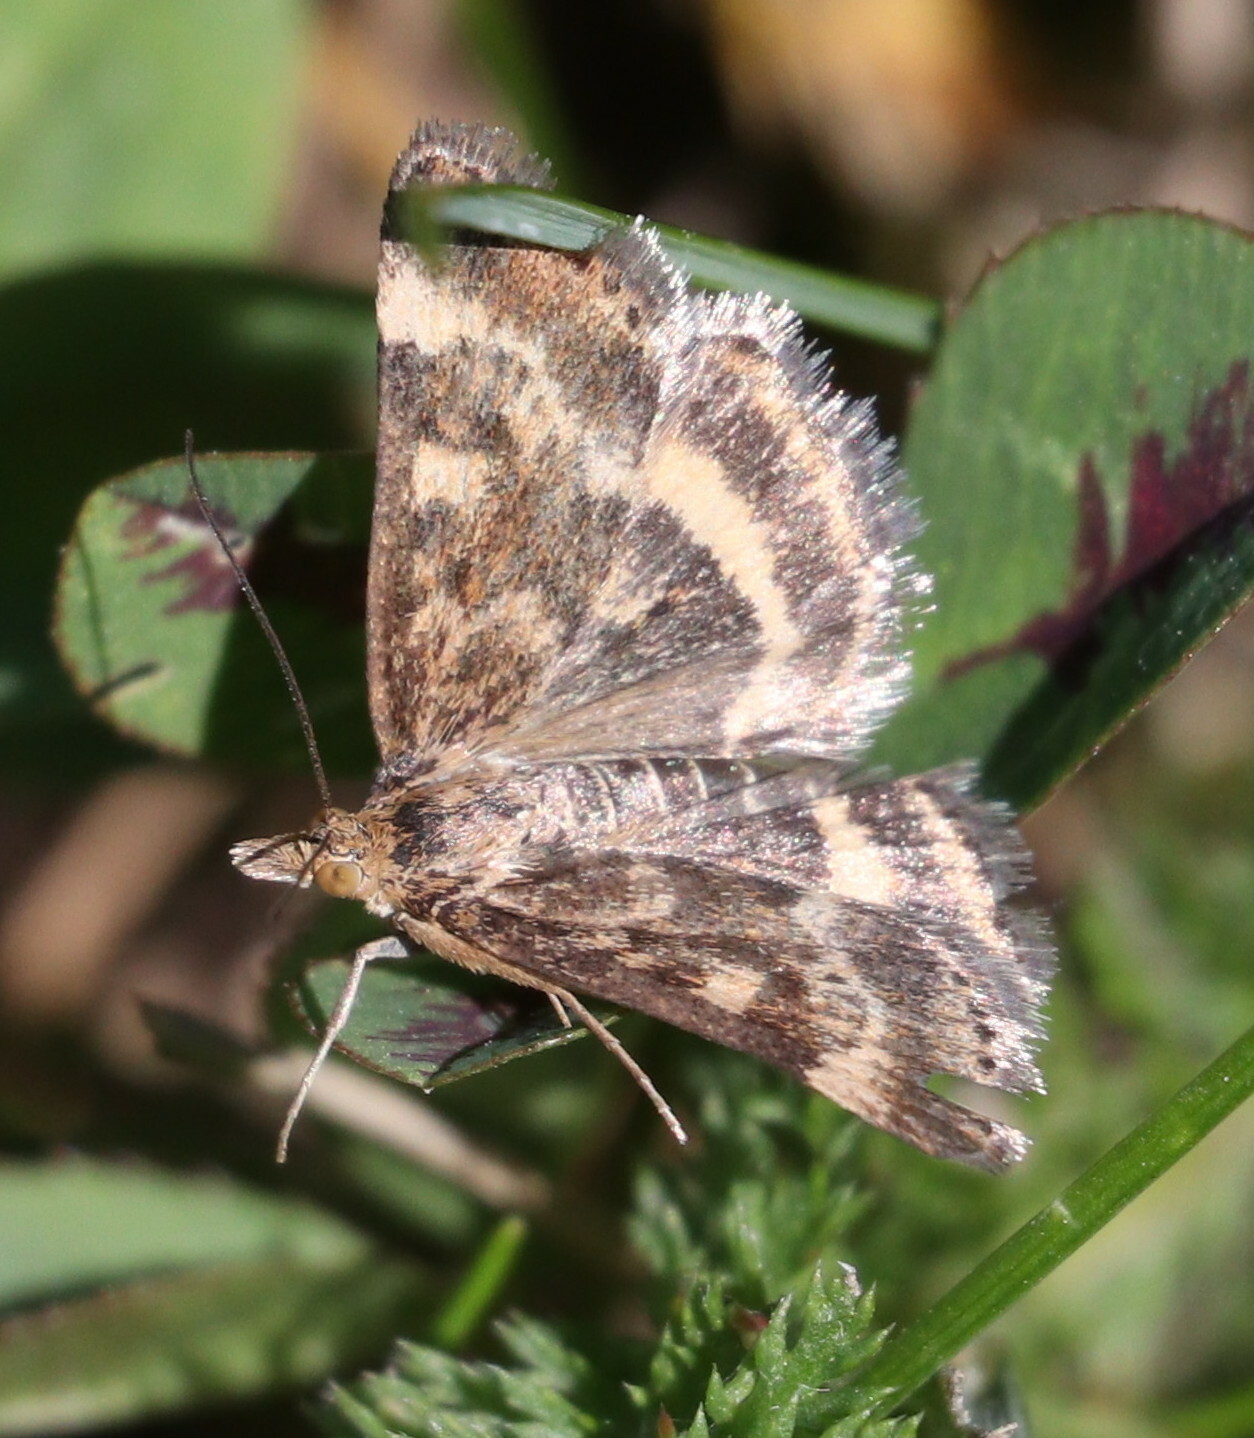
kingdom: Animalia
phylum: Arthropoda
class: Insecta
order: Lepidoptera
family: Crambidae
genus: Pyrausta
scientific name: Pyrausta despicata
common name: Straw-barred pearl
